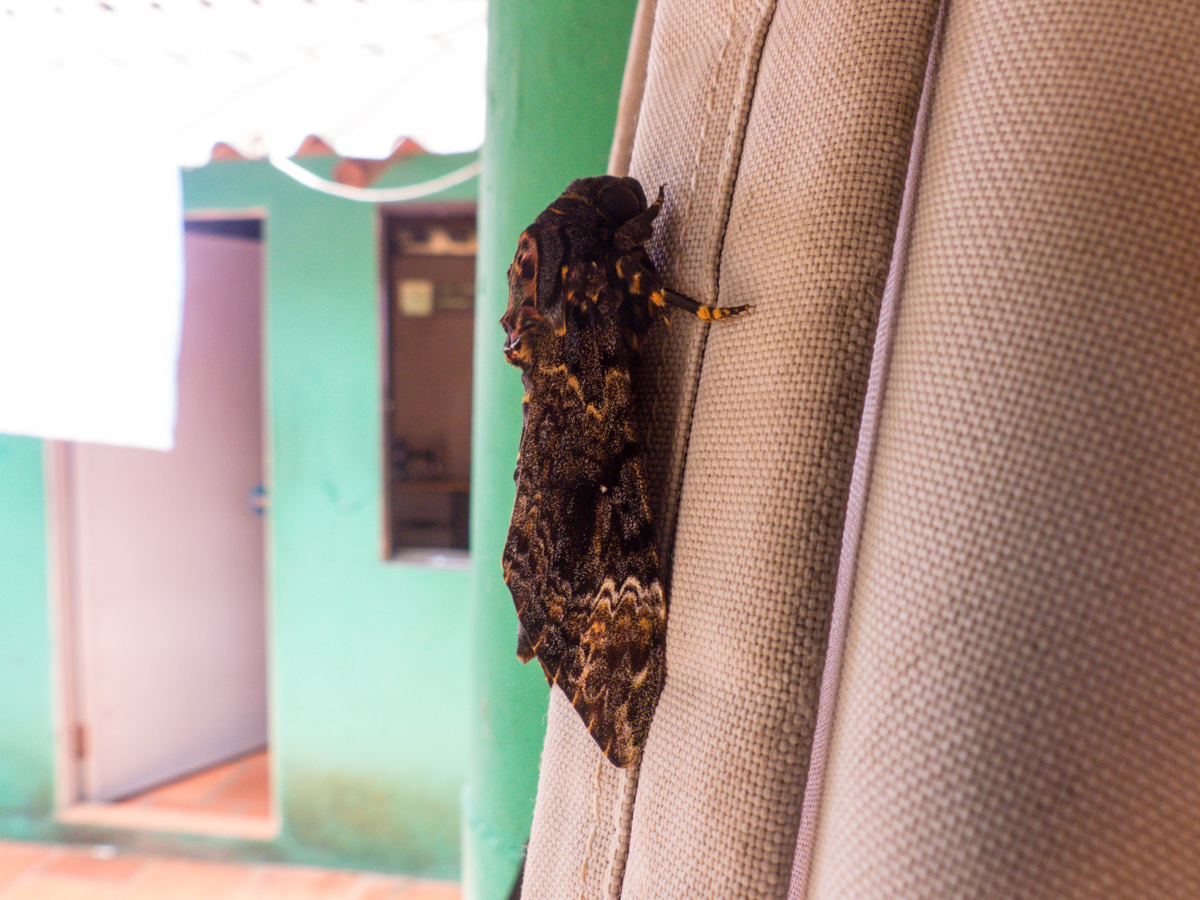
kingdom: Animalia
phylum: Arthropoda
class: Insecta
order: Lepidoptera
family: Sphingidae
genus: Acherontia
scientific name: Acherontia lachesis
